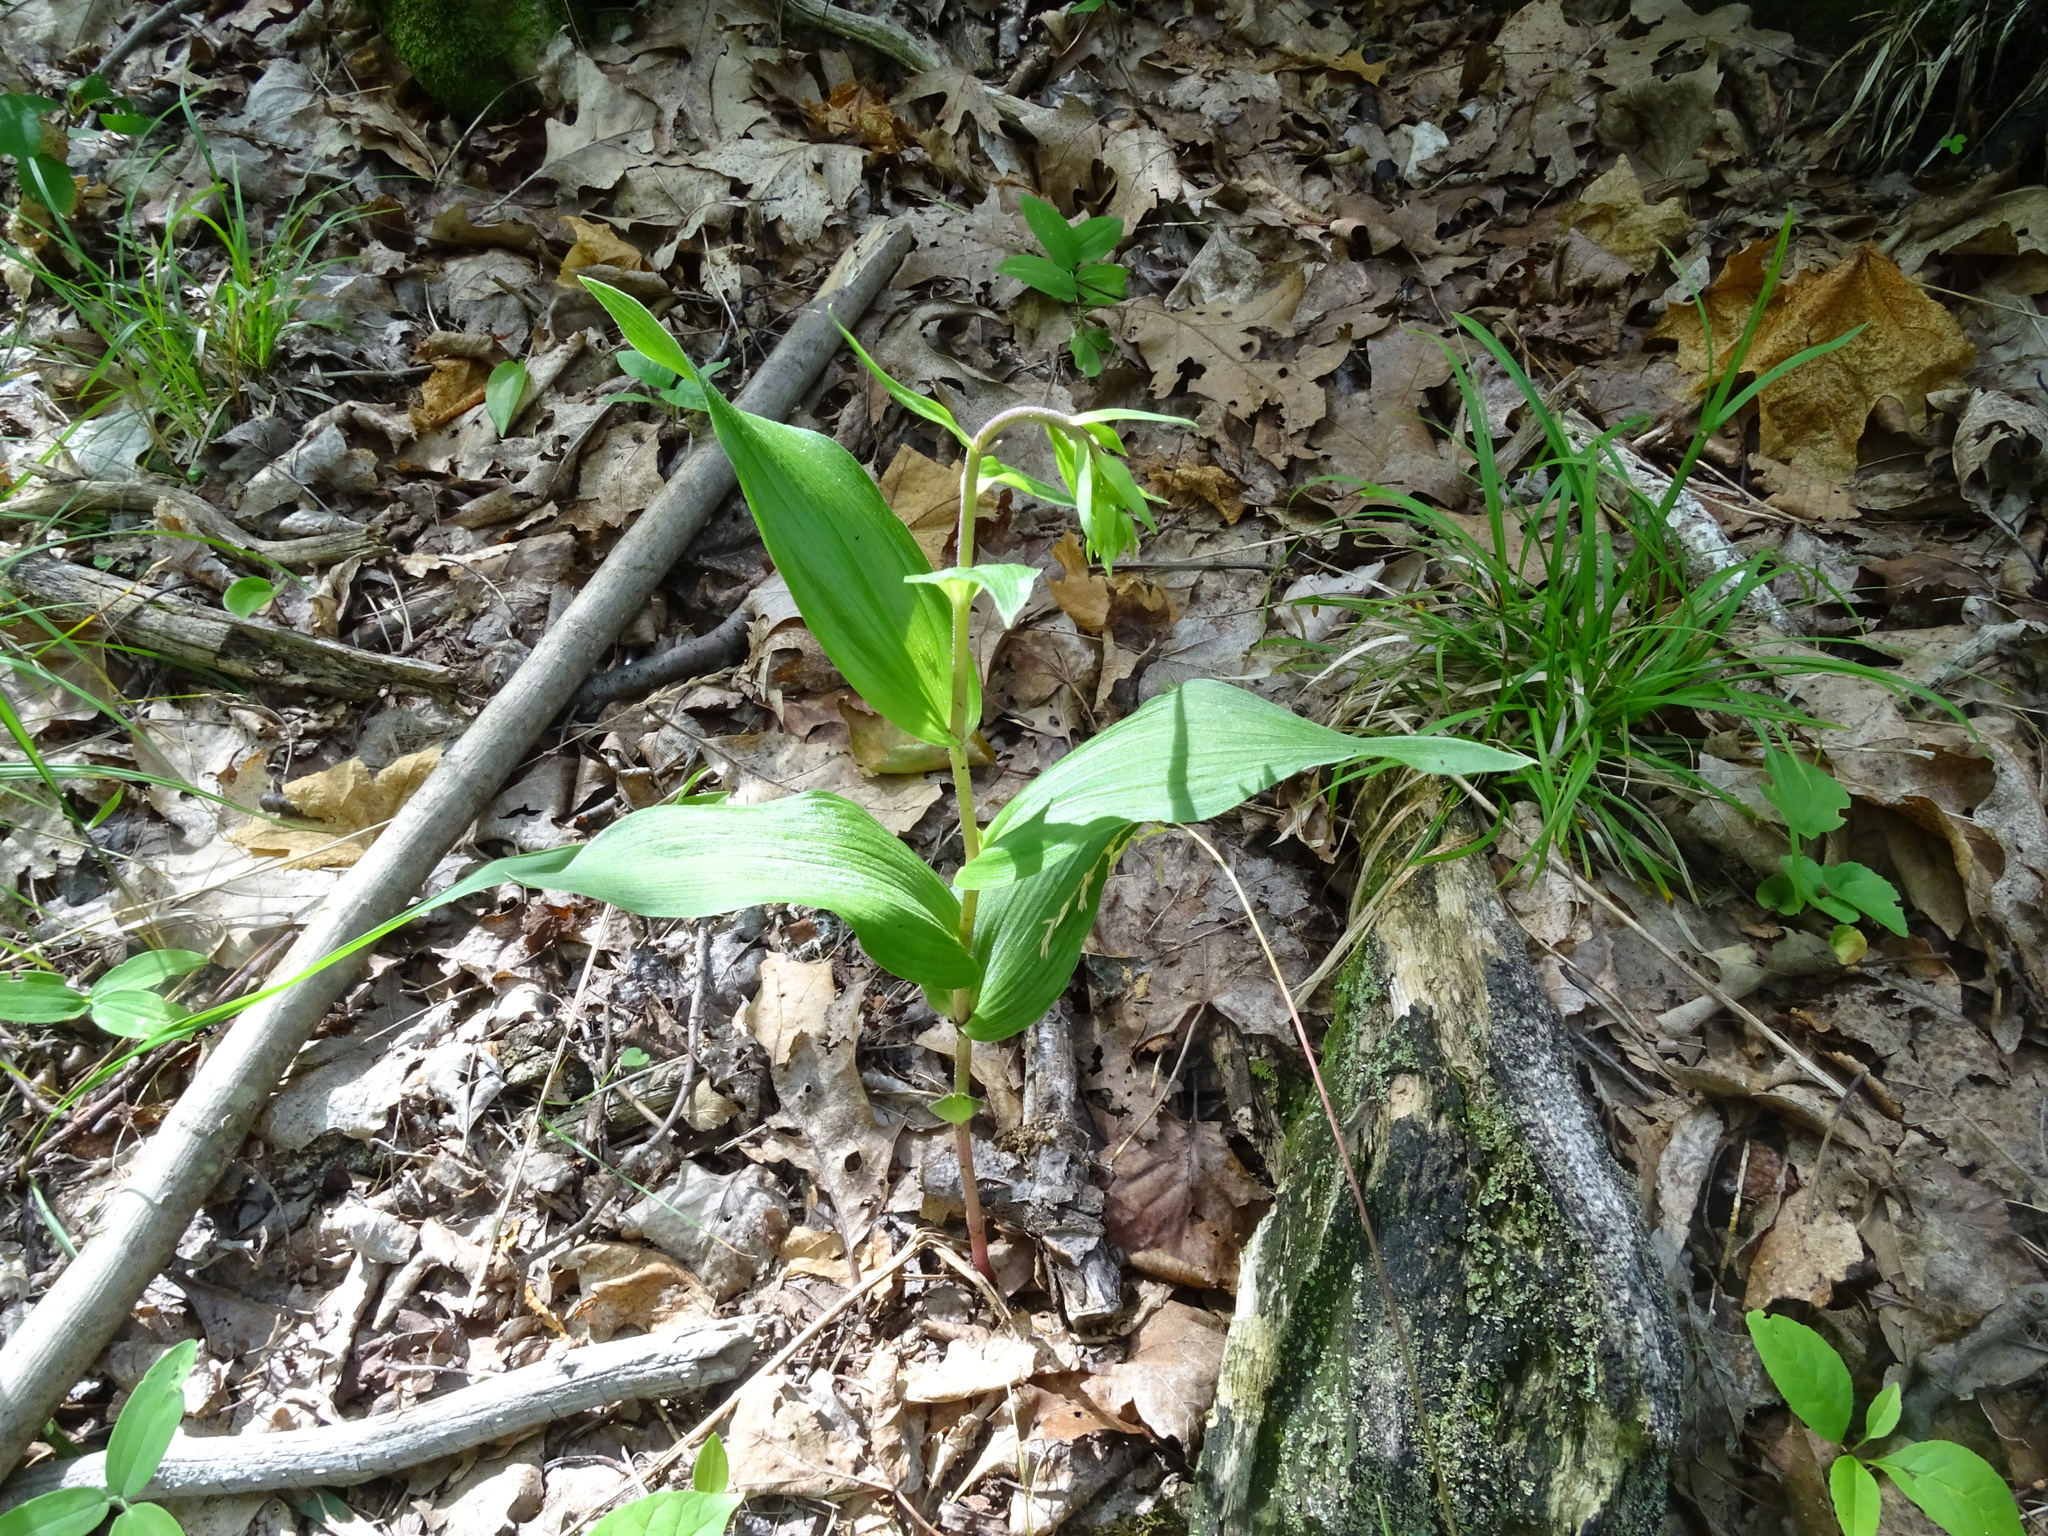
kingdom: Plantae
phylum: Tracheophyta
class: Liliopsida
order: Asparagales
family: Orchidaceae
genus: Epipactis
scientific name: Epipactis helleborine
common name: Broad-leaved helleborine
